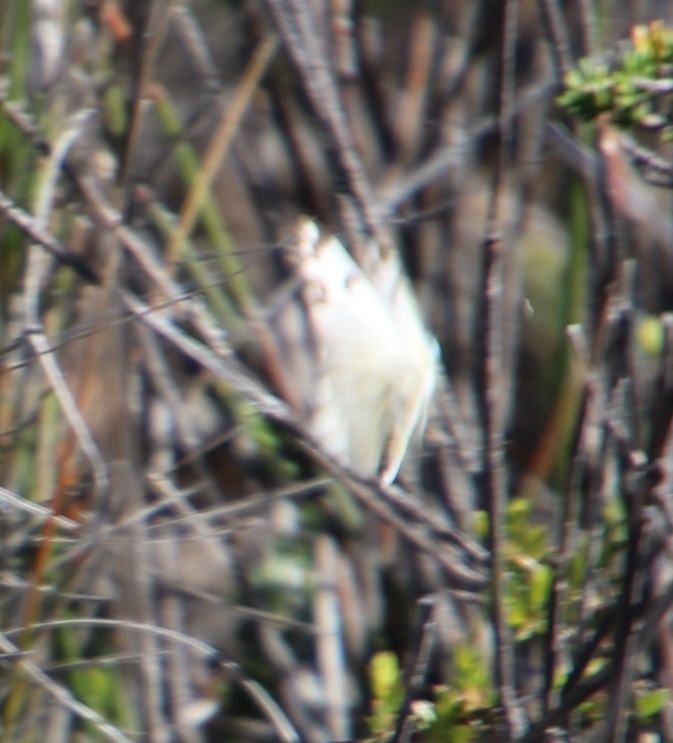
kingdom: Animalia
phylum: Arthropoda
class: Insecta
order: Lepidoptera
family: Pieridae
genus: Pontia
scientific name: Pontia helice
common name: Meadow white
